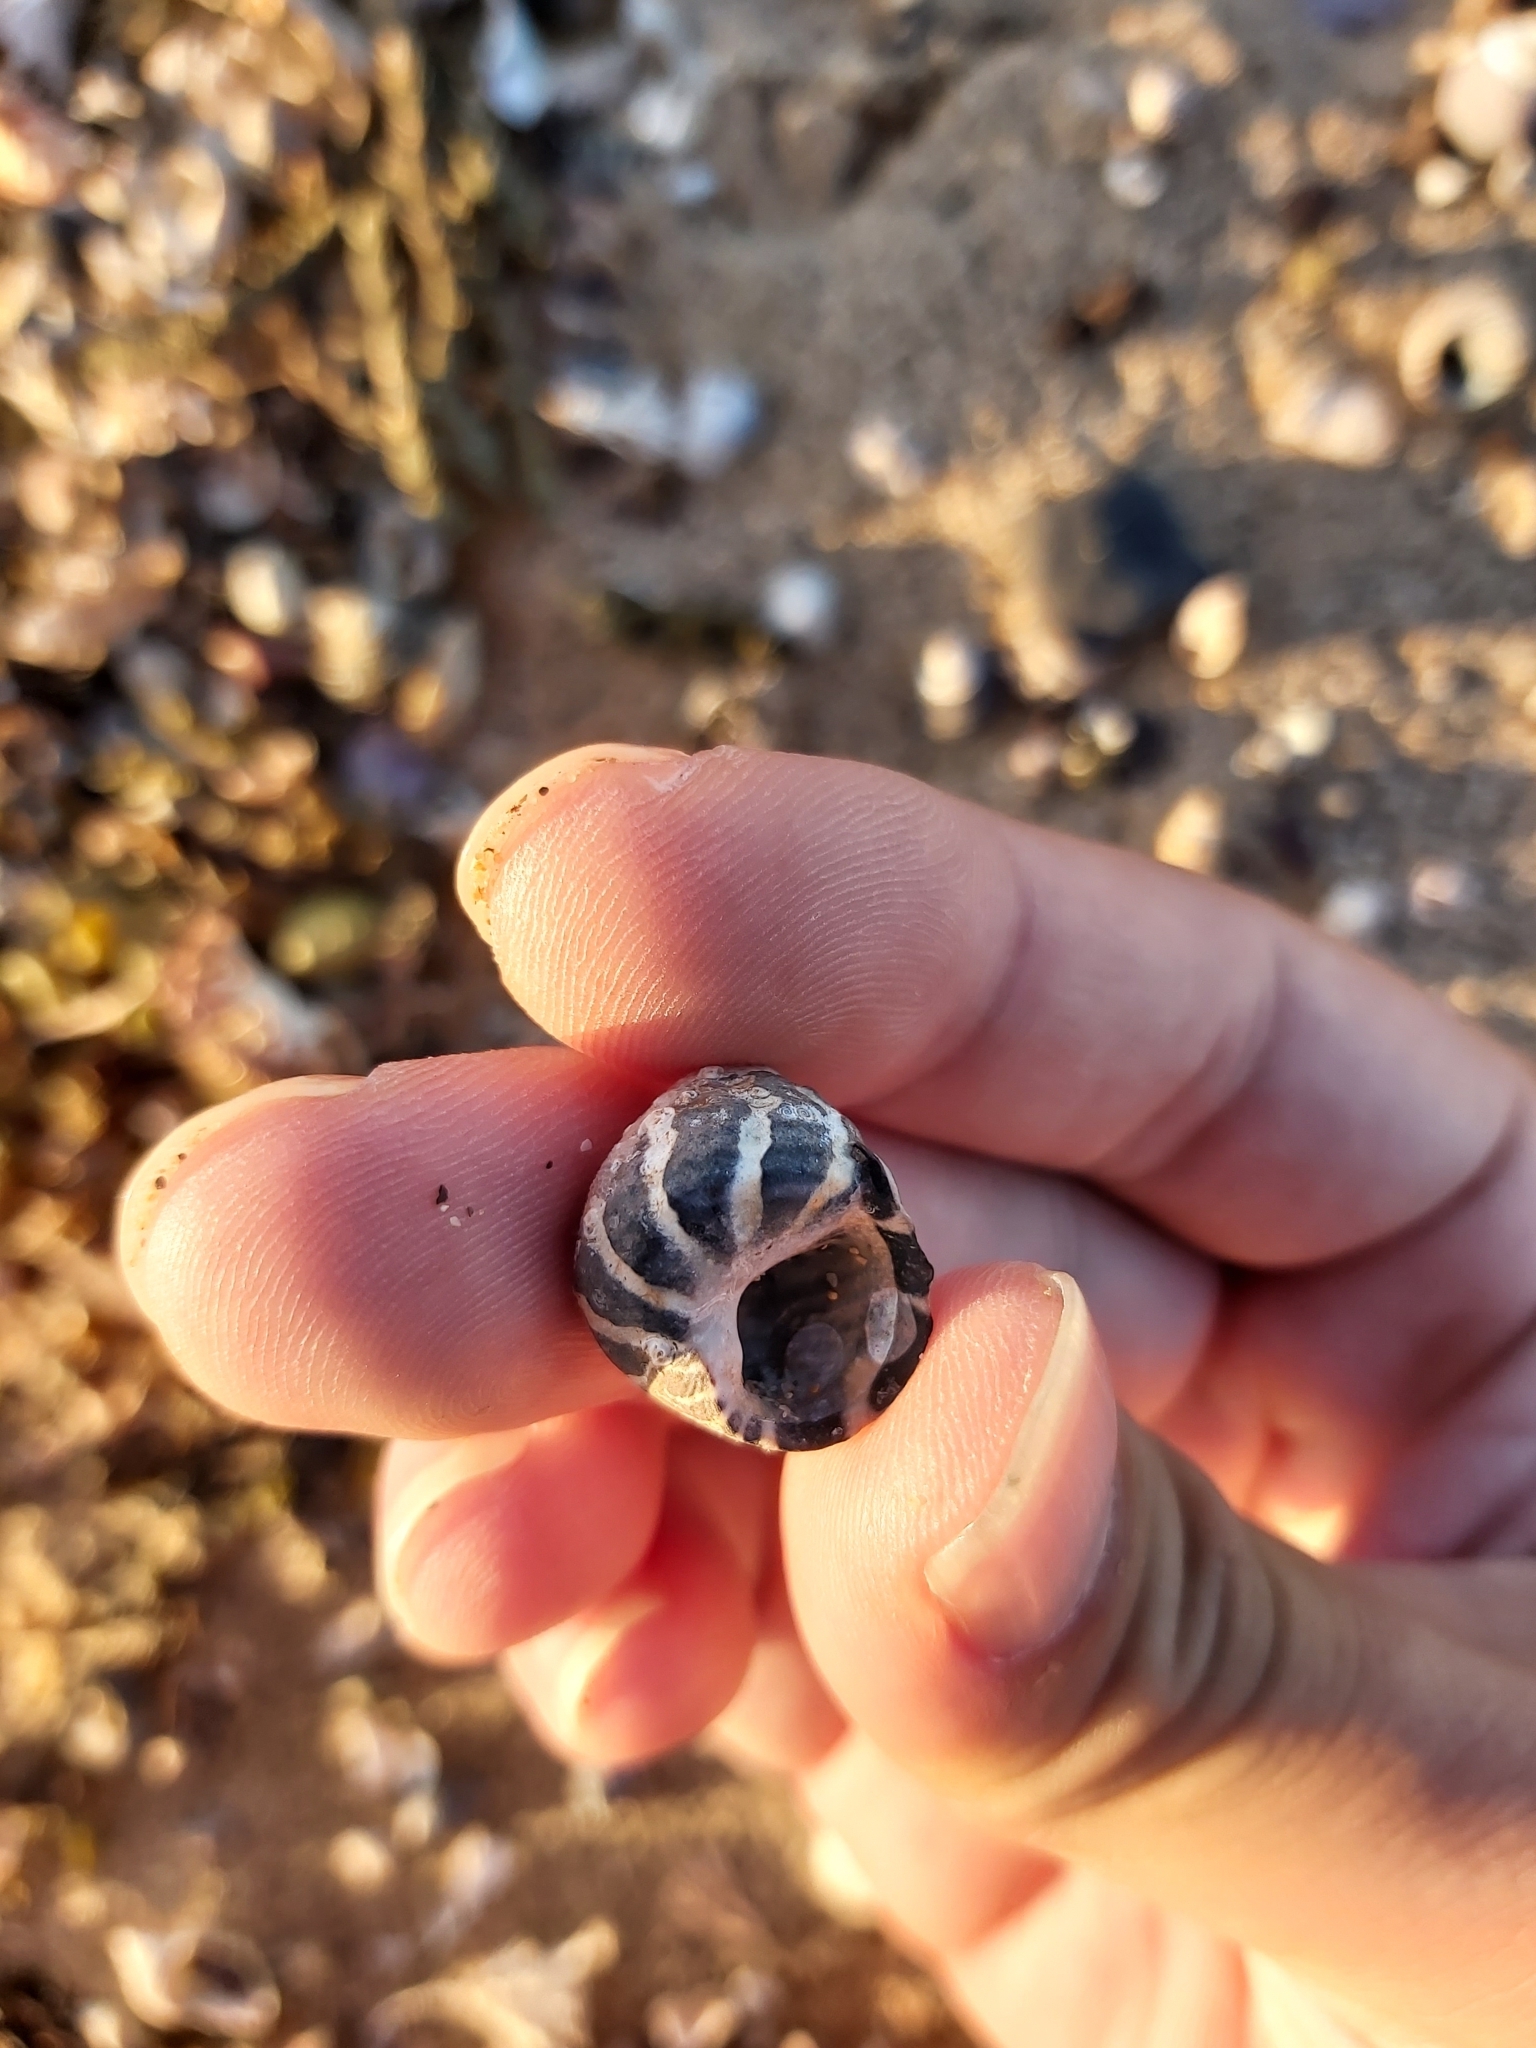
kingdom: Animalia
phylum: Mollusca
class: Gastropoda
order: Trochida
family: Trochidae
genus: Austrocochlea
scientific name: Austrocochlea porcata
